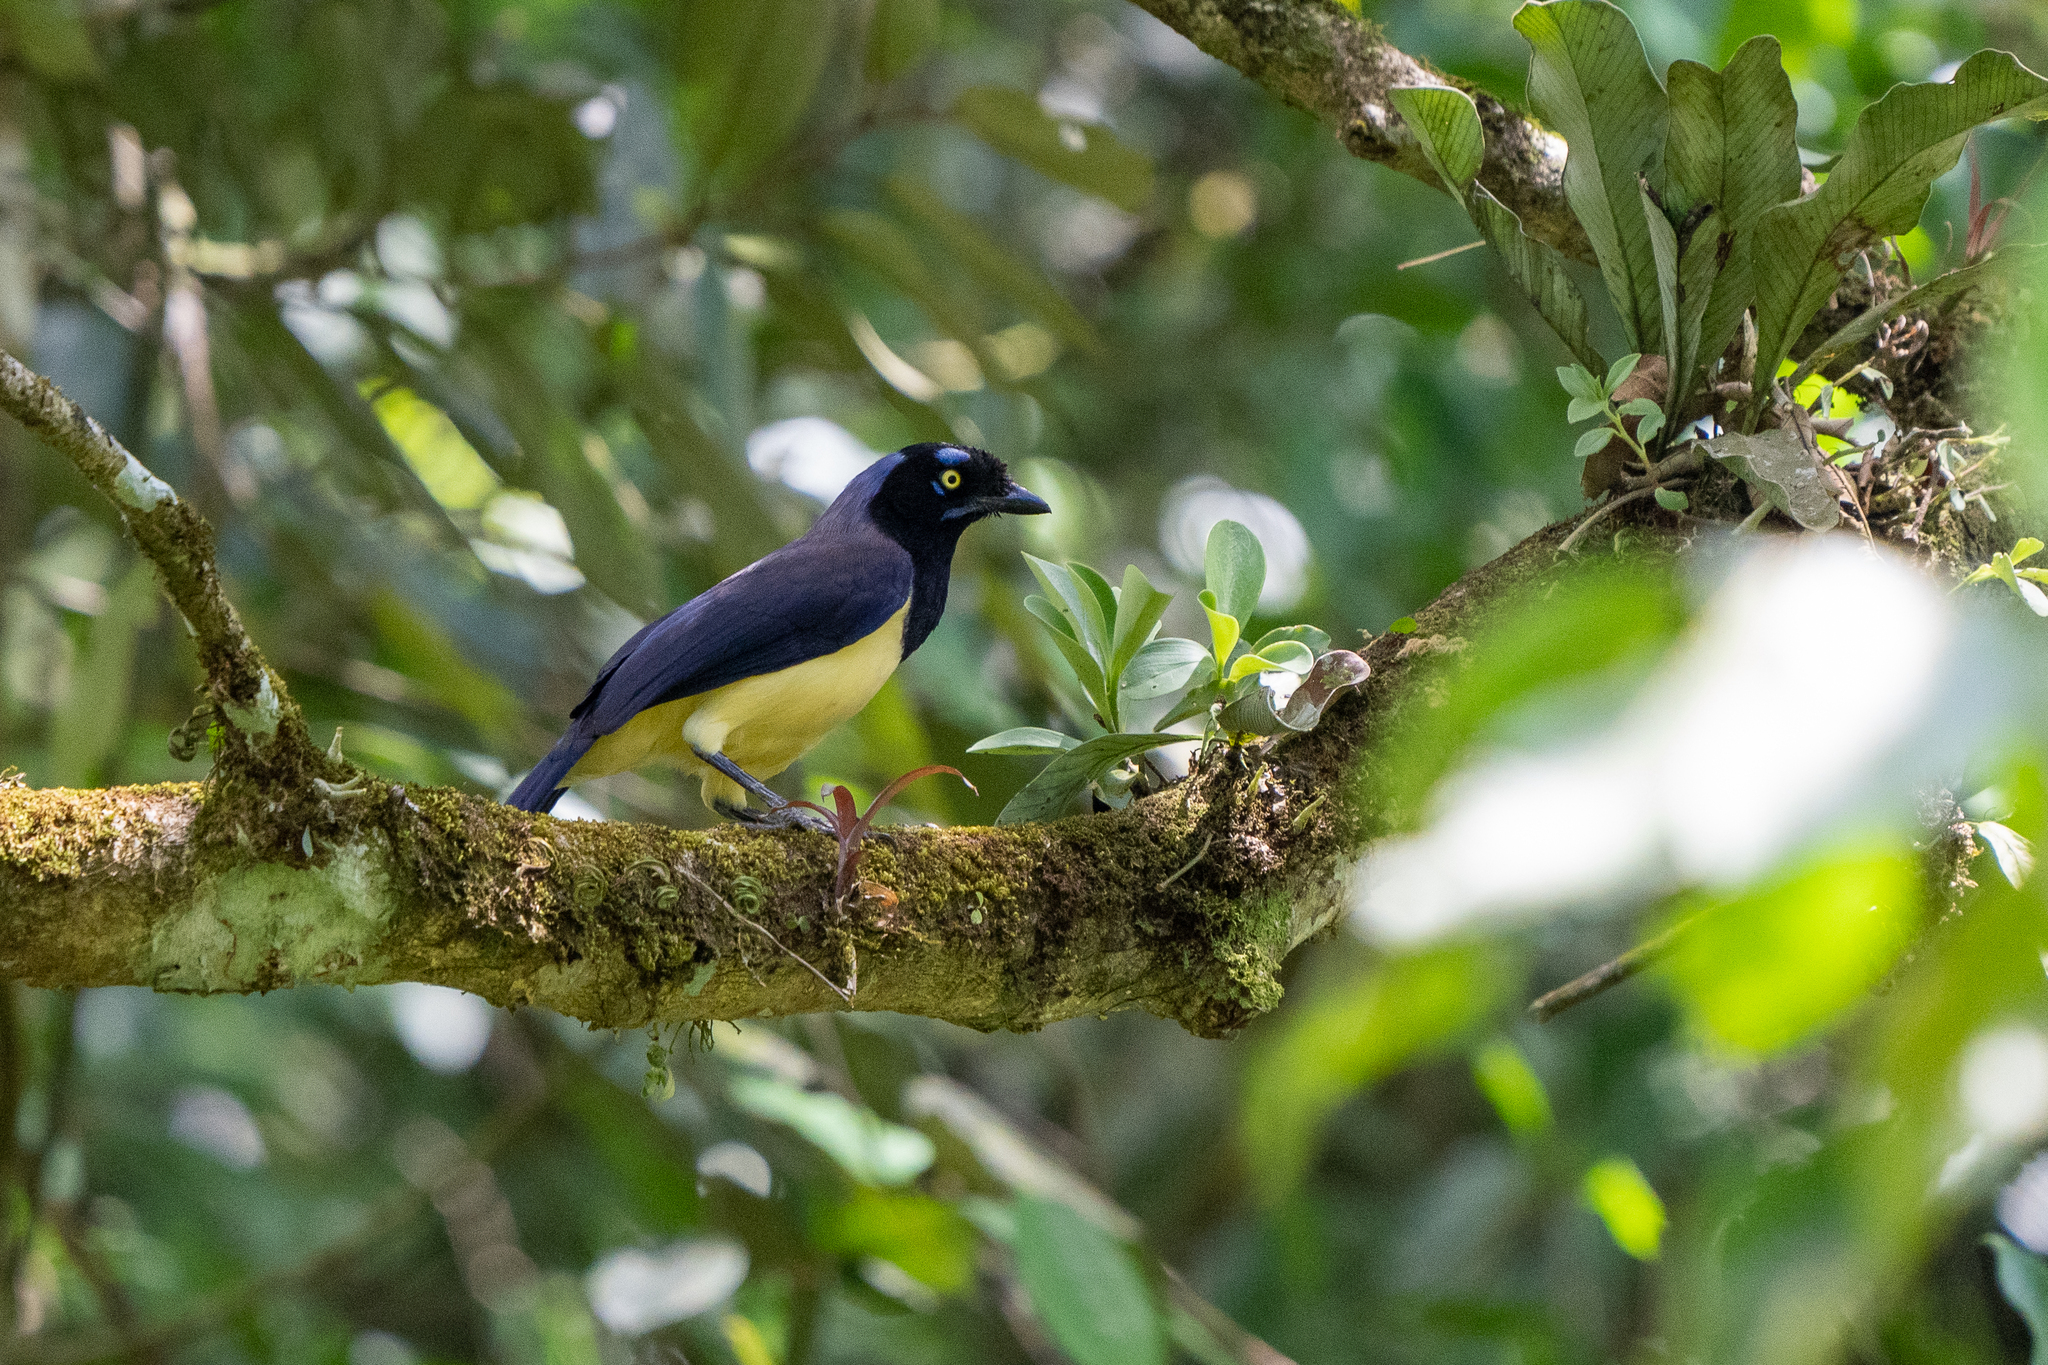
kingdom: Animalia
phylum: Chordata
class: Aves
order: Passeriformes
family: Corvidae
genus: Cyanocorax
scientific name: Cyanocorax affinis
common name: Black-chested jay
